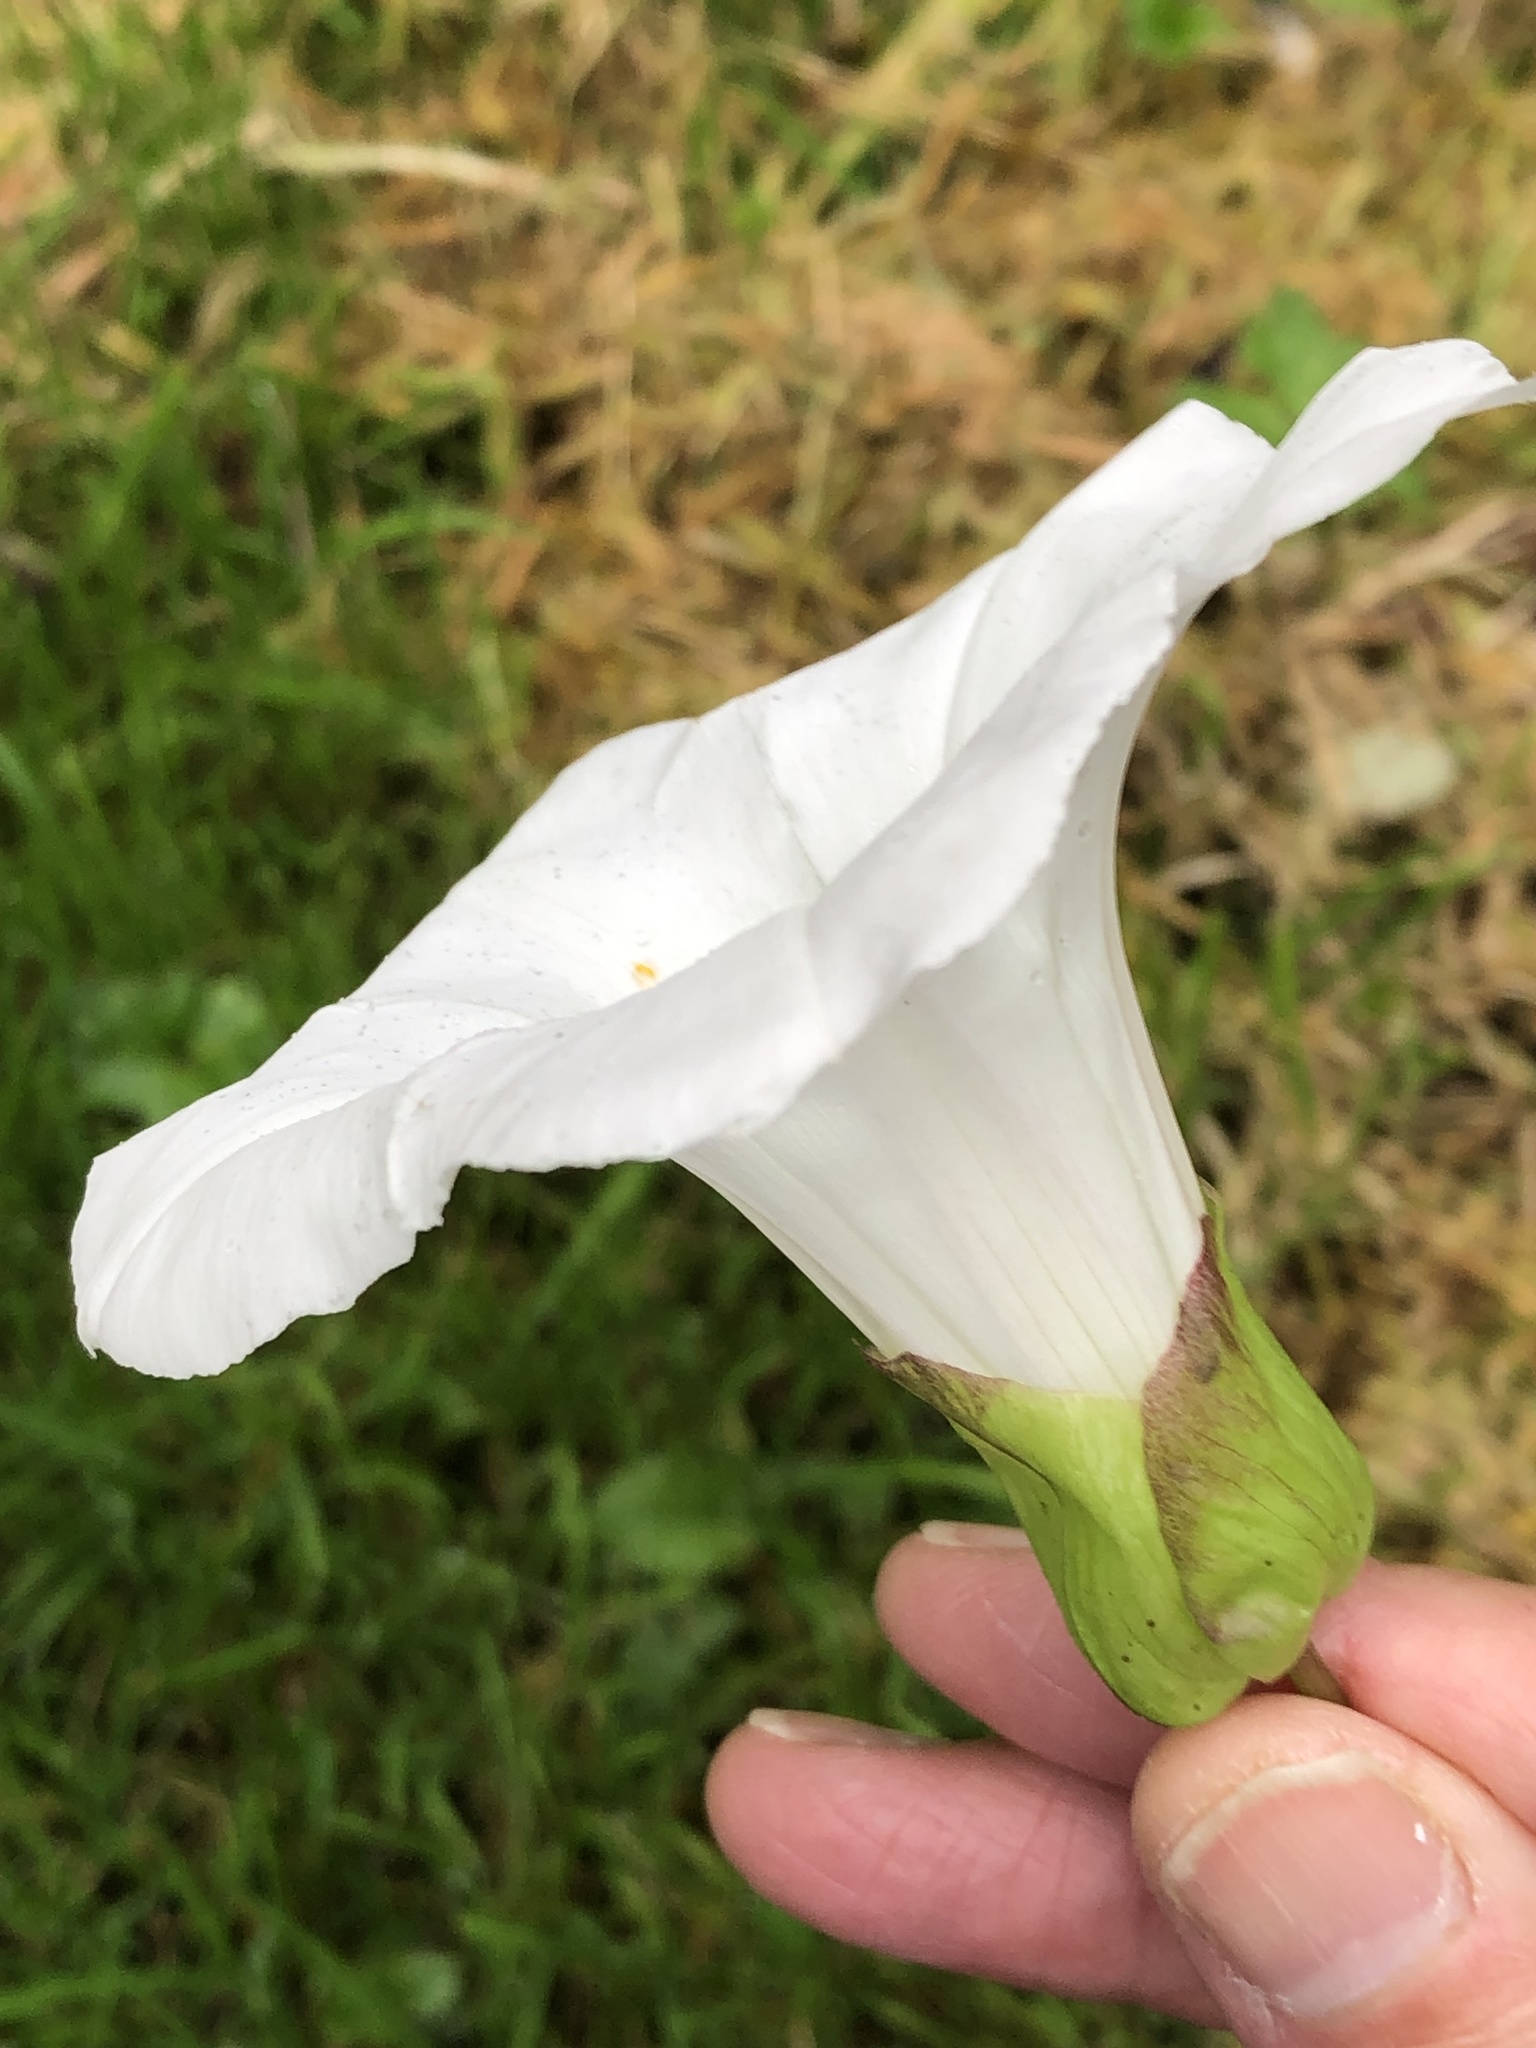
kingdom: Plantae
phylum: Tracheophyta
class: Magnoliopsida
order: Solanales
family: Convolvulaceae
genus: Calystegia
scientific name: Calystegia silvatica
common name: Large bindweed
